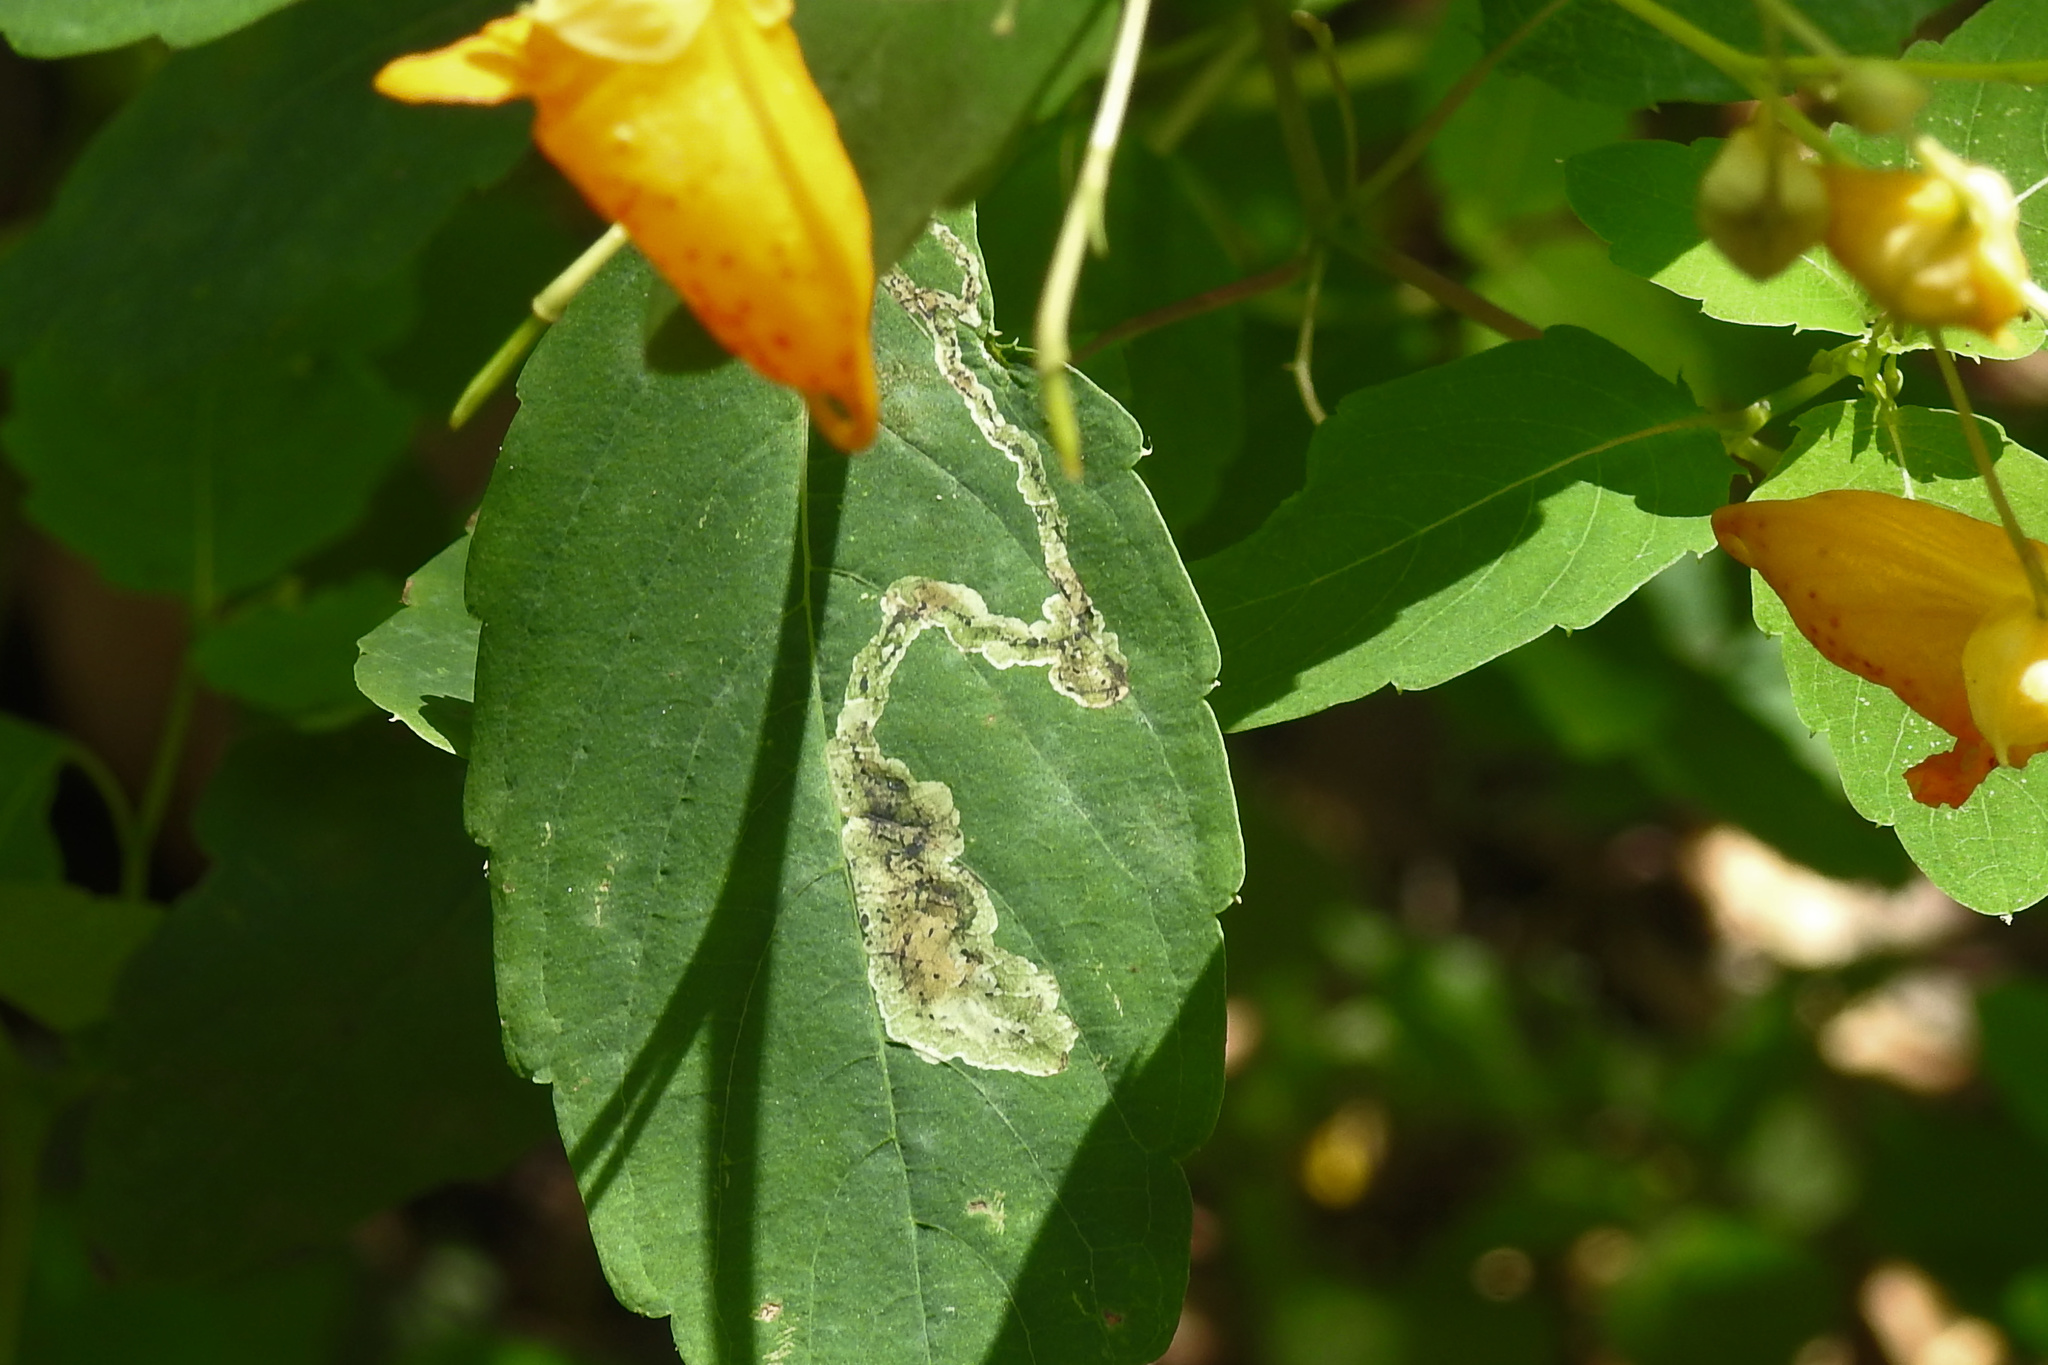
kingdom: Animalia
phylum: Arthropoda
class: Insecta
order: Diptera
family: Agromyzidae
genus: Phytoliriomyza
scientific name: Phytoliriomyza melampyga
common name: Jewelweed leaf-miner fly
